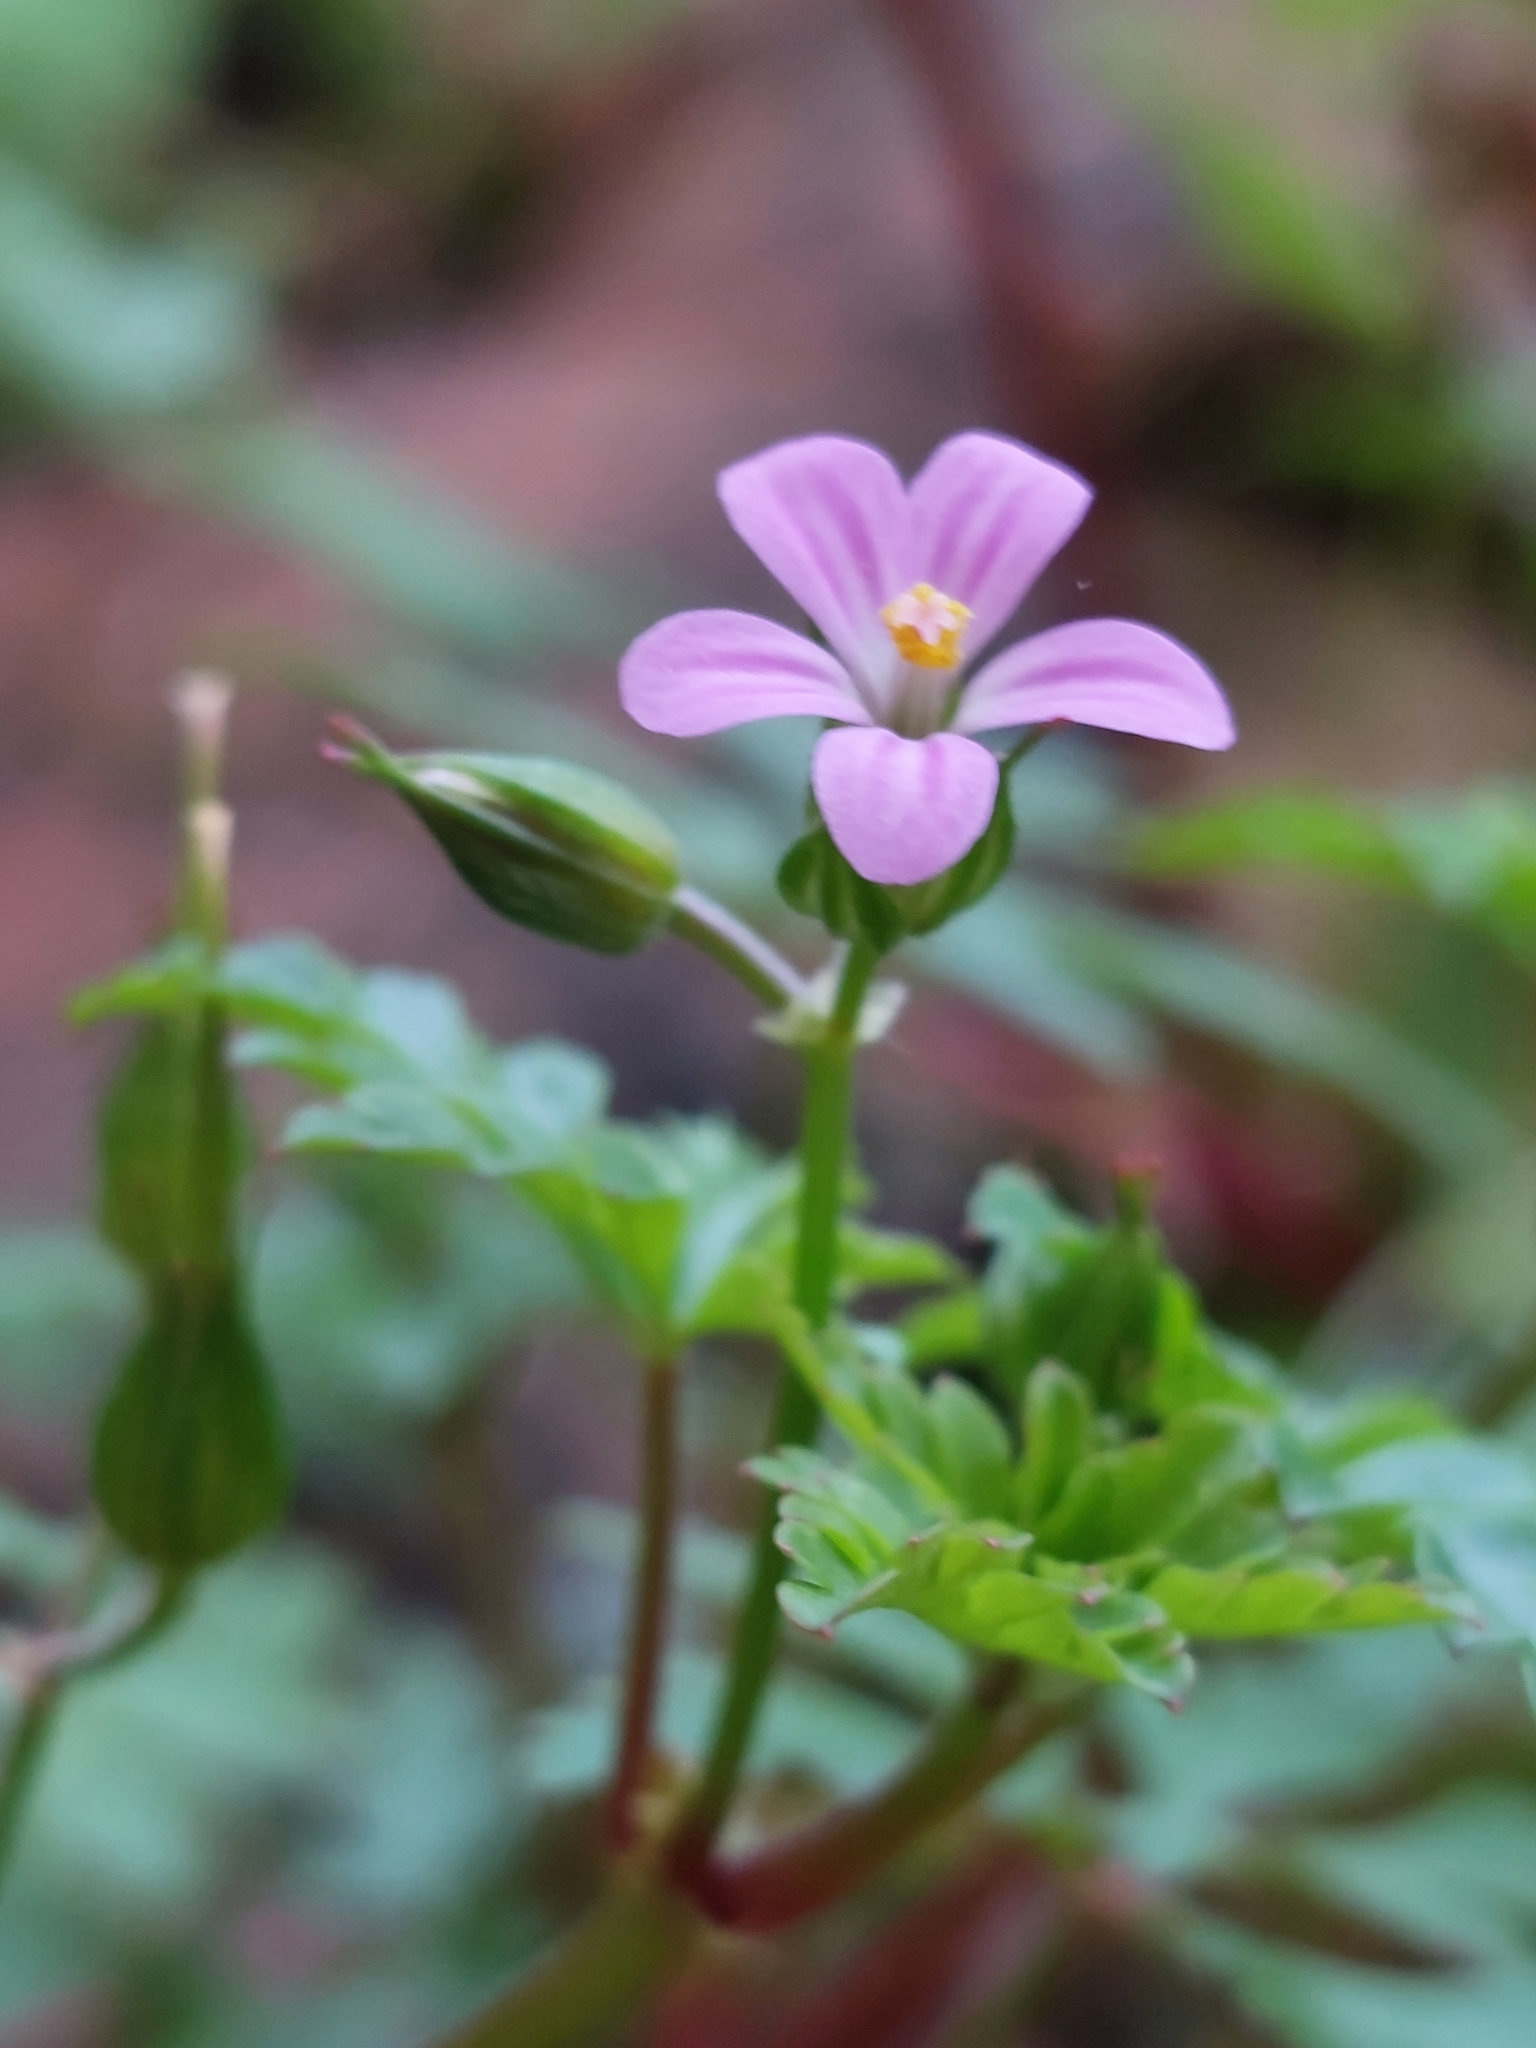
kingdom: Plantae
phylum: Tracheophyta
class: Magnoliopsida
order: Geraniales
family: Geraniaceae
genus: Geranium
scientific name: Geranium purpureum
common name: Little-robin
